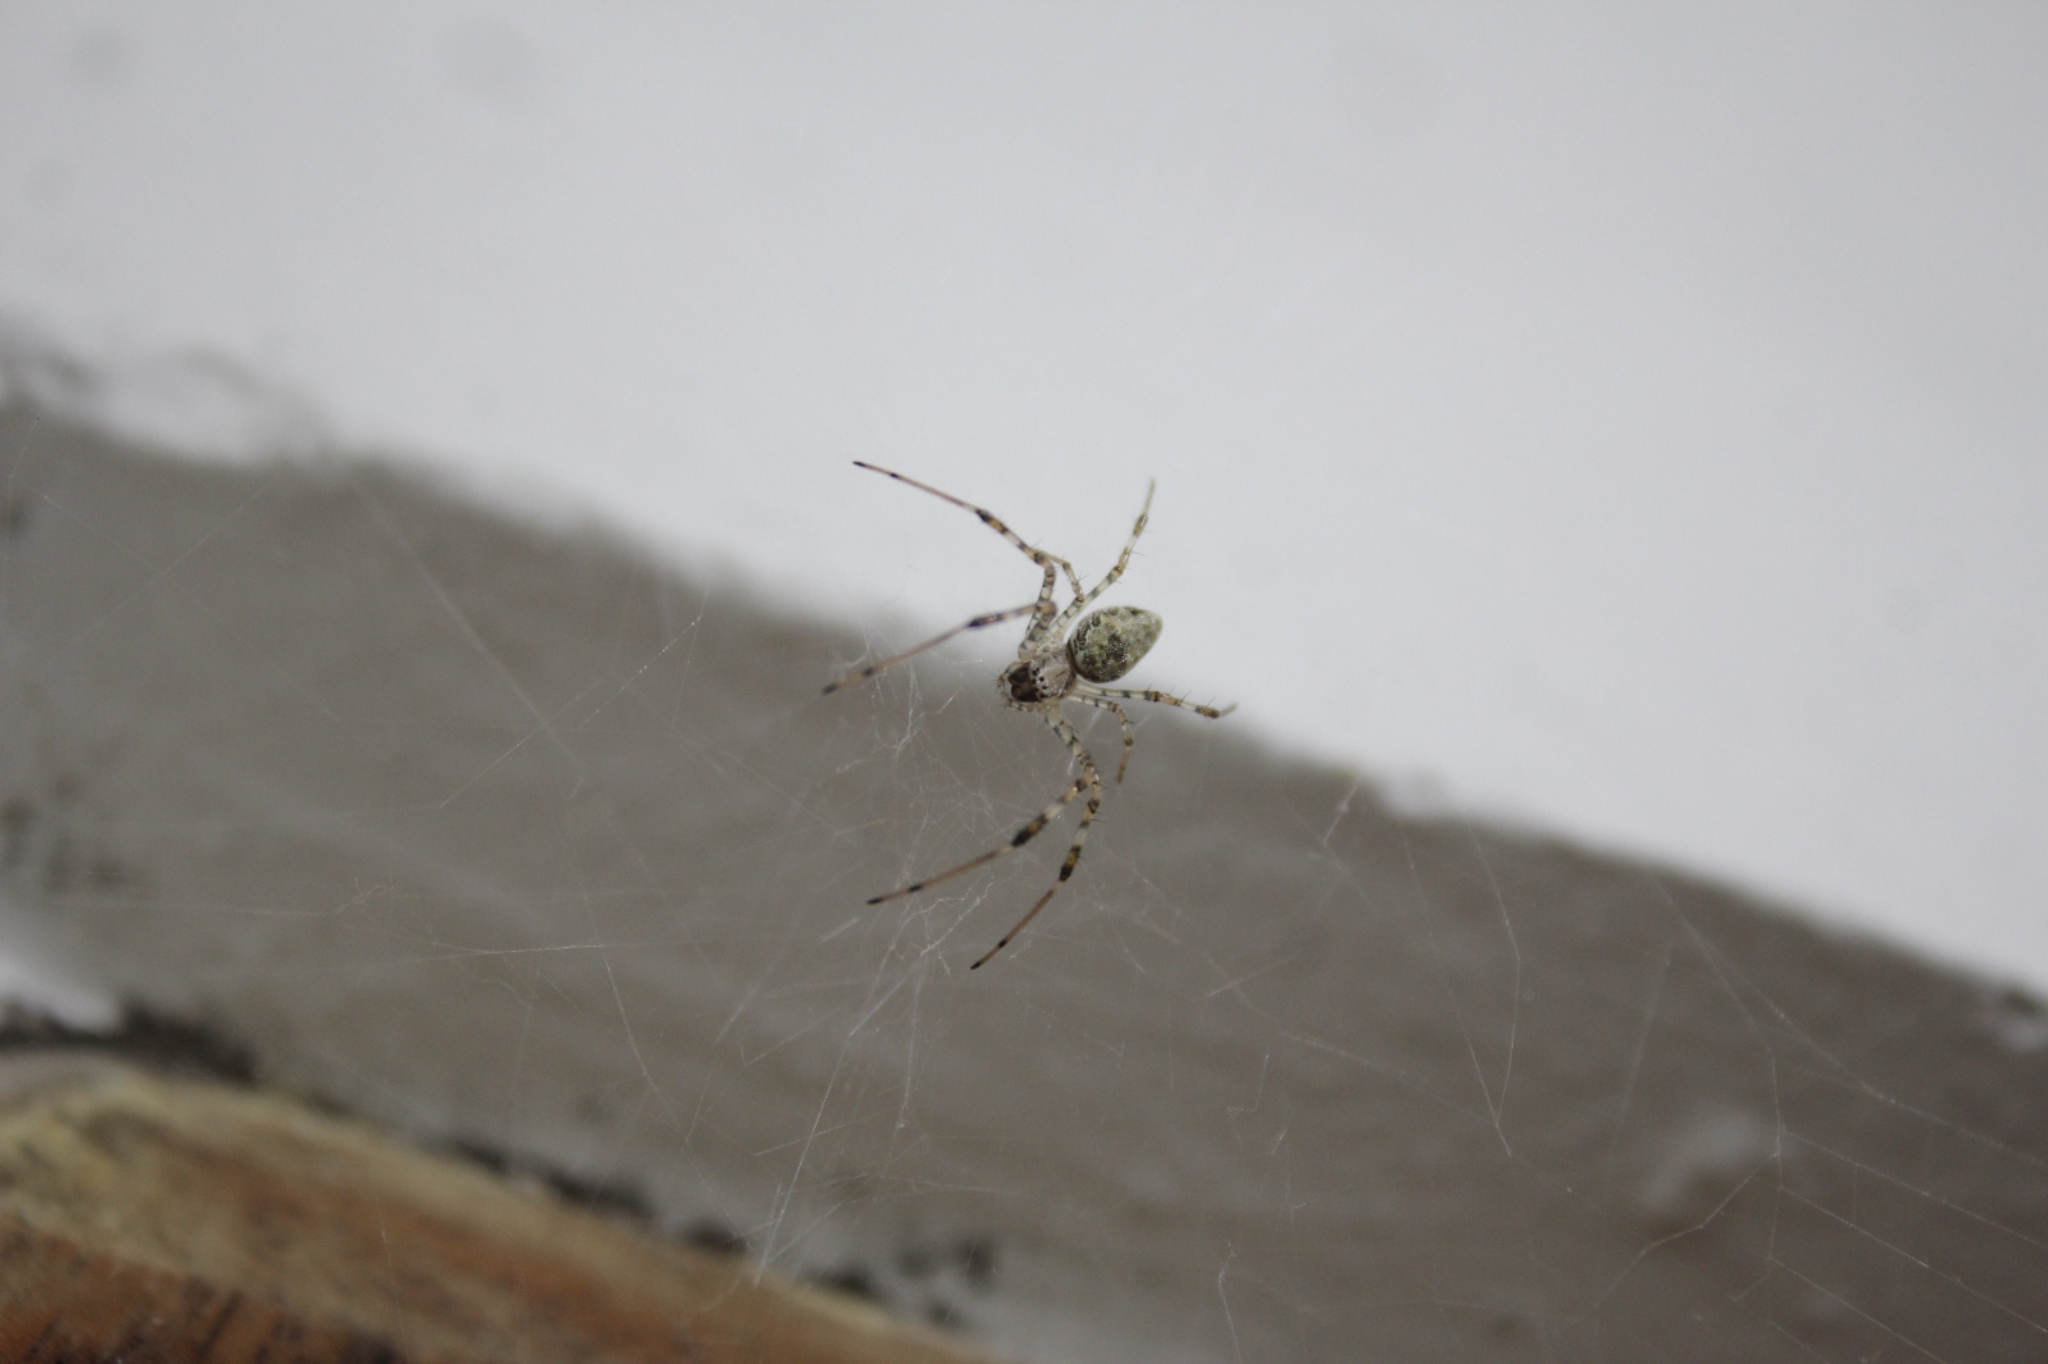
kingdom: Animalia
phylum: Arthropoda
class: Arachnida
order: Araneae
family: Araneidae
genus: Nephilingis
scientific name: Nephilingis cruentata
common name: African hermit spider
